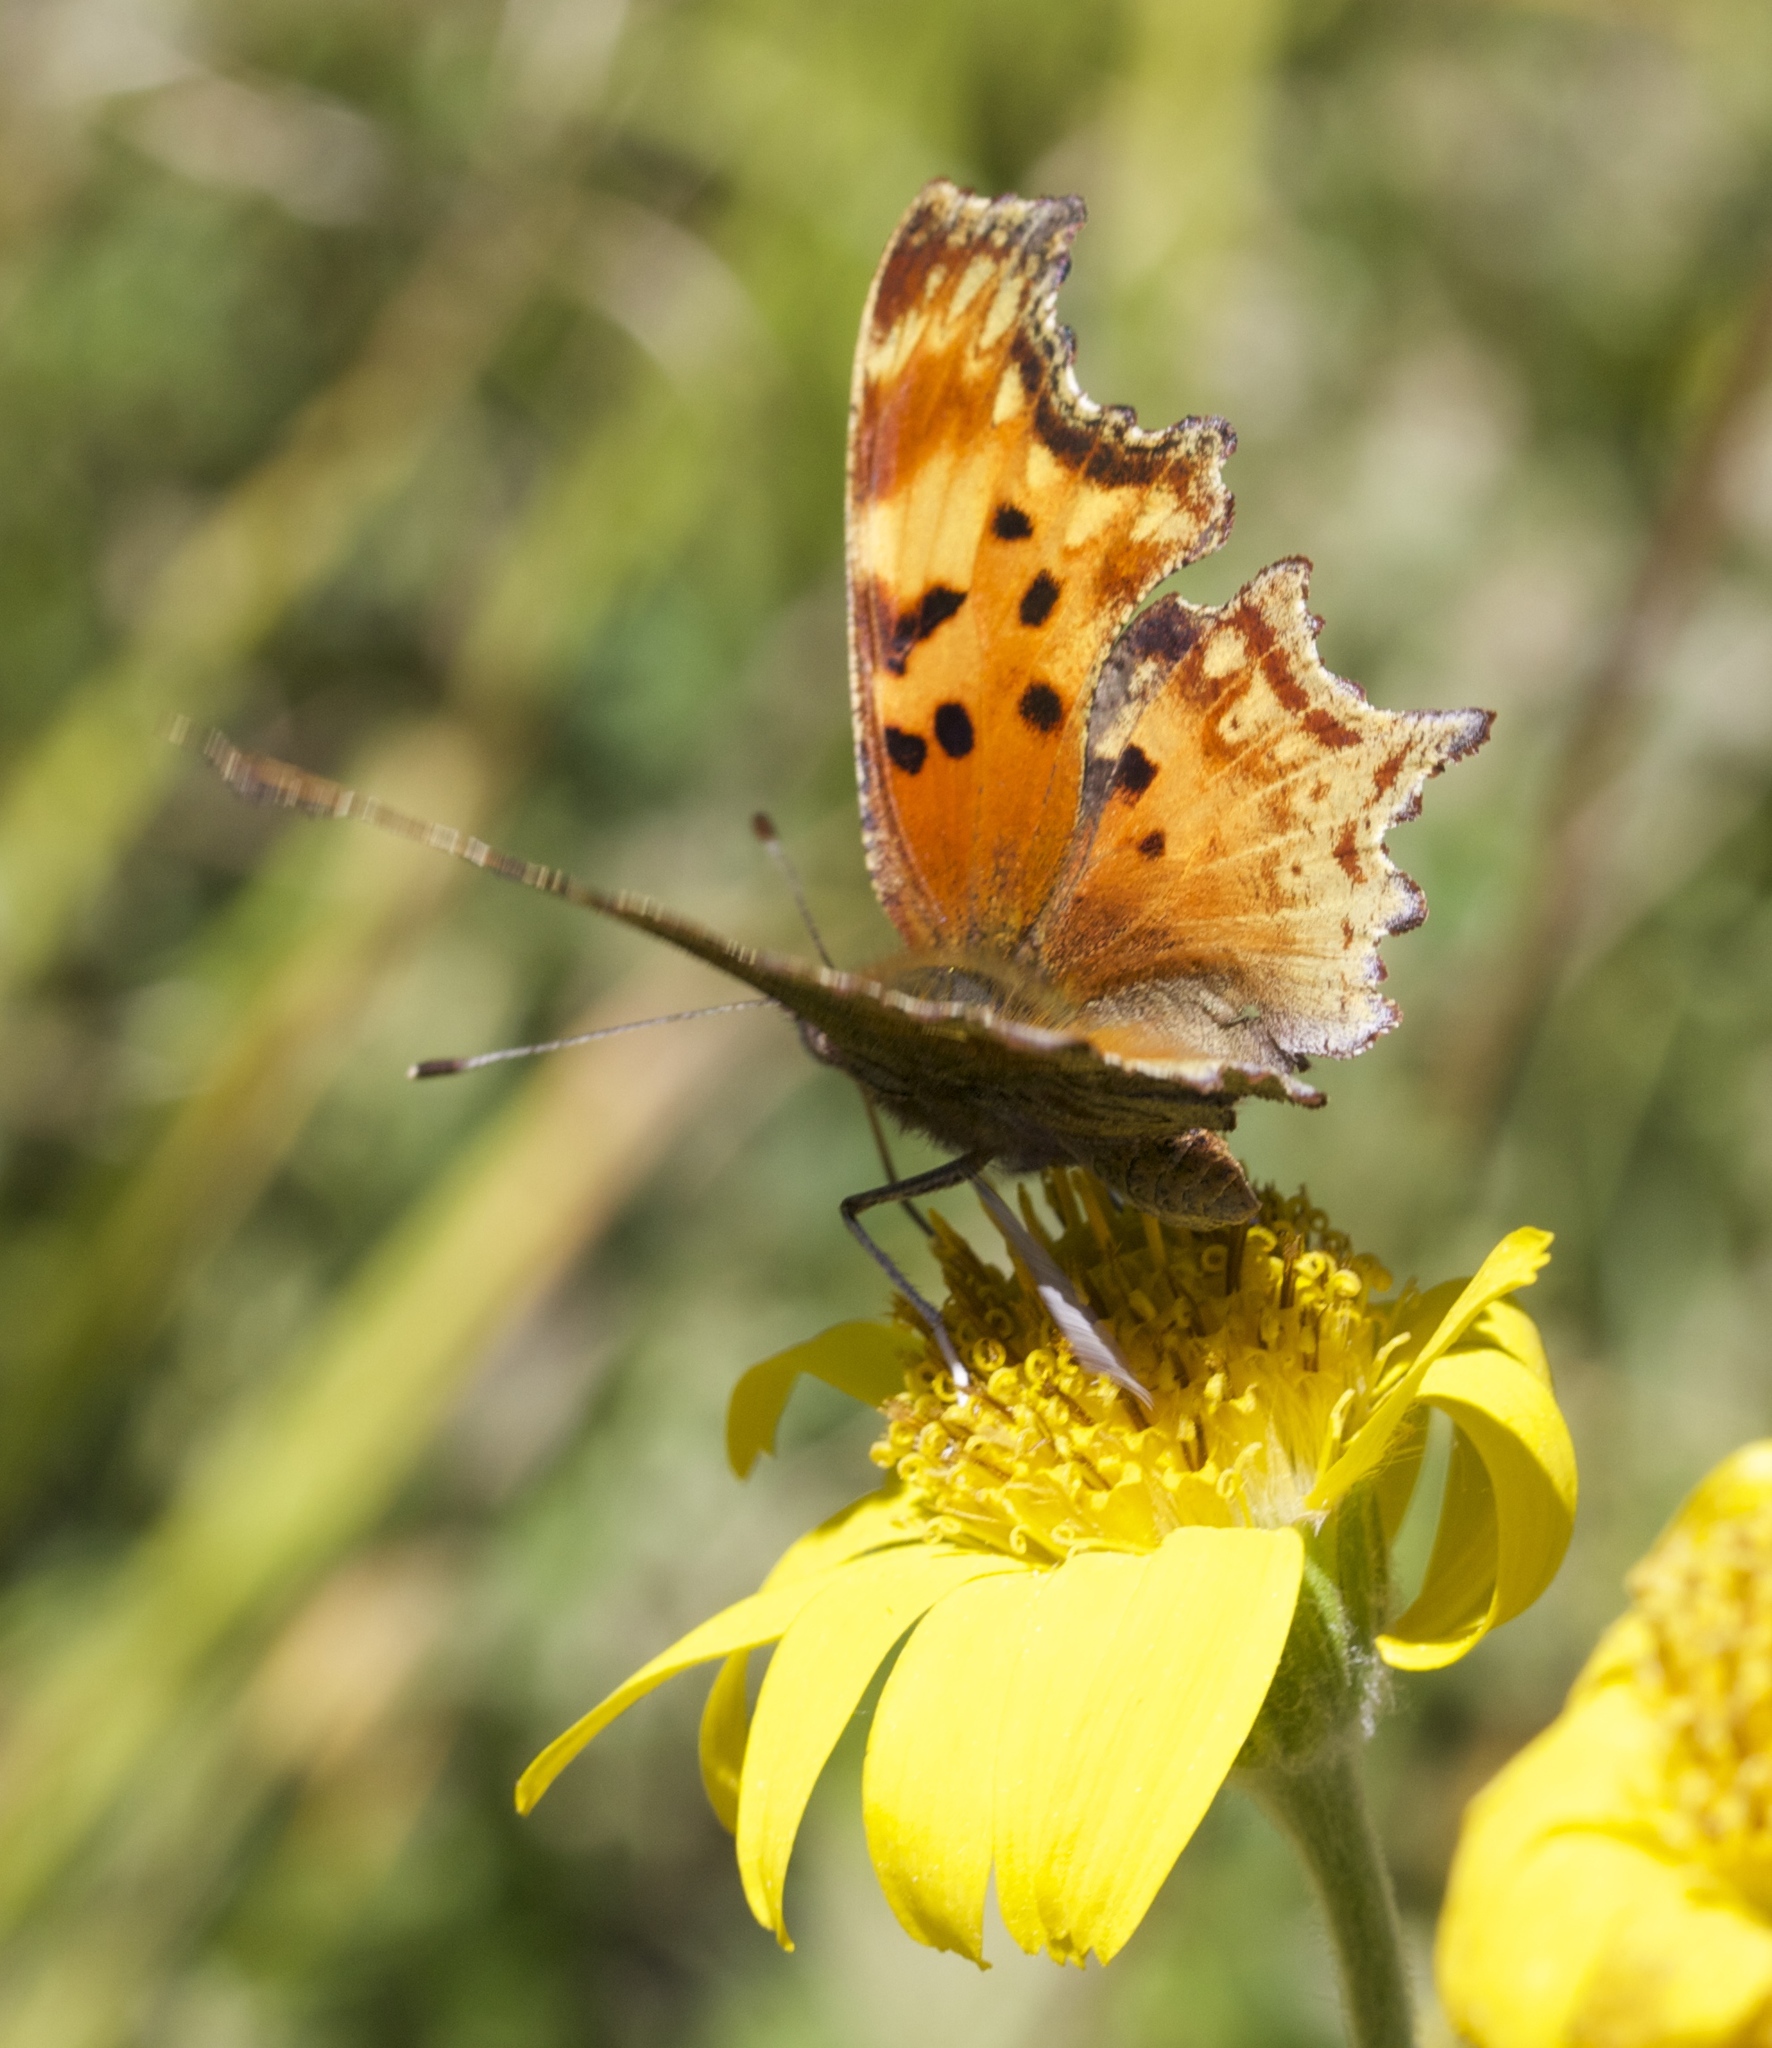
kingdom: Animalia
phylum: Arthropoda
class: Insecta
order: Lepidoptera
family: Nymphalidae
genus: Polygonia
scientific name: Polygonia gracilis
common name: Hoary comma
